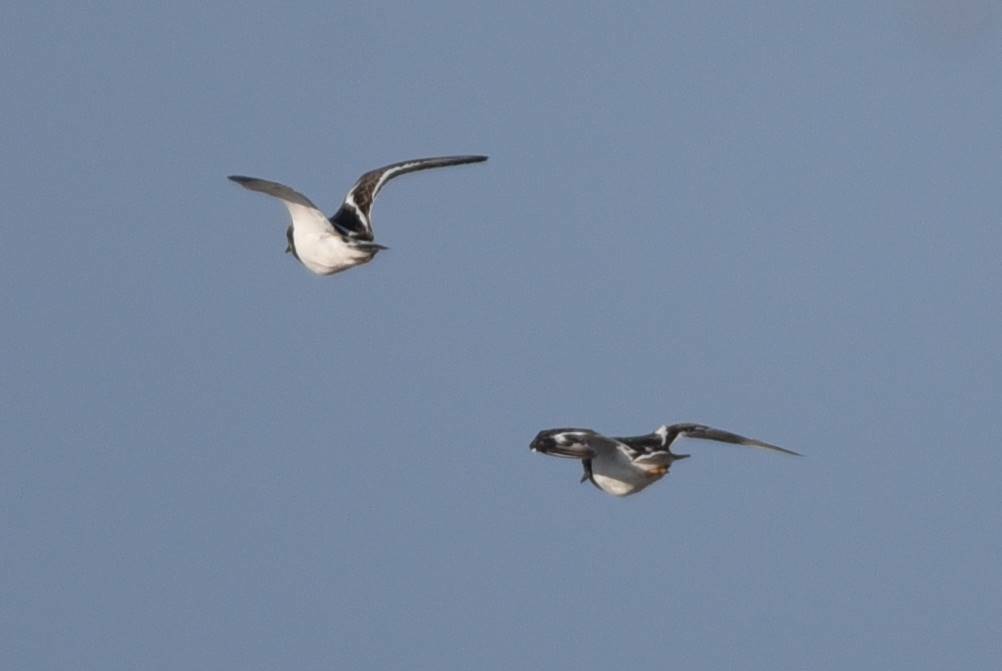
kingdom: Animalia
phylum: Chordata
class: Aves
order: Charadriiformes
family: Scolopacidae
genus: Arenaria
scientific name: Arenaria interpres
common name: Ruddy turnstone
